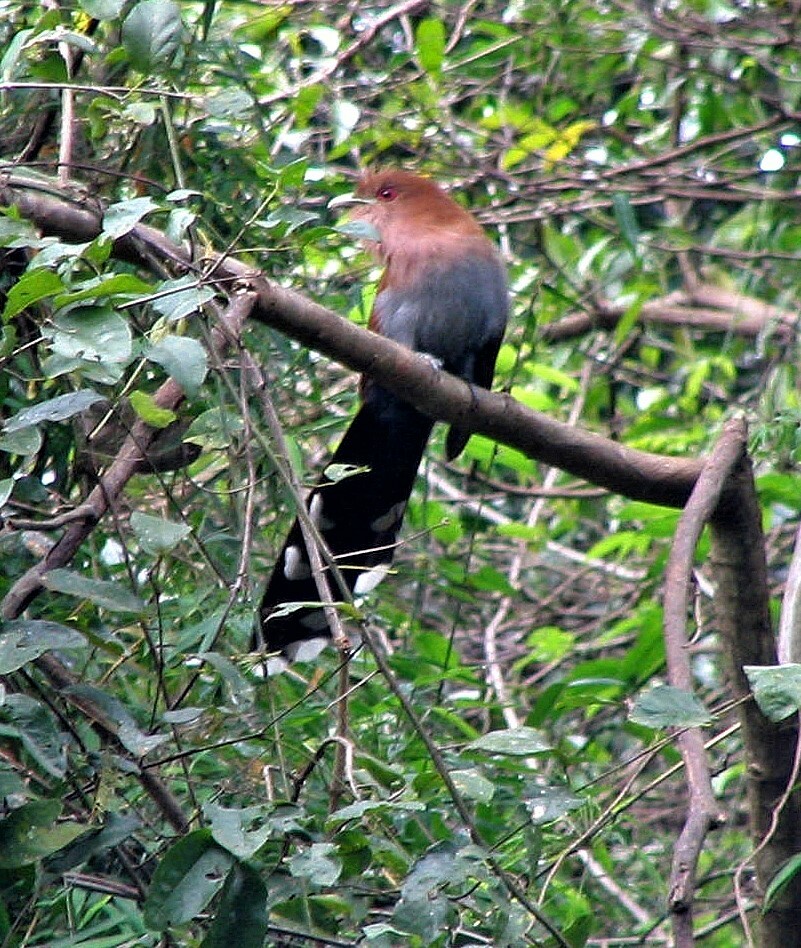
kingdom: Animalia
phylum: Chordata
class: Aves
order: Cuculiformes
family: Cuculidae
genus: Piaya
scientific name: Piaya cayana
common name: Squirrel cuckoo
